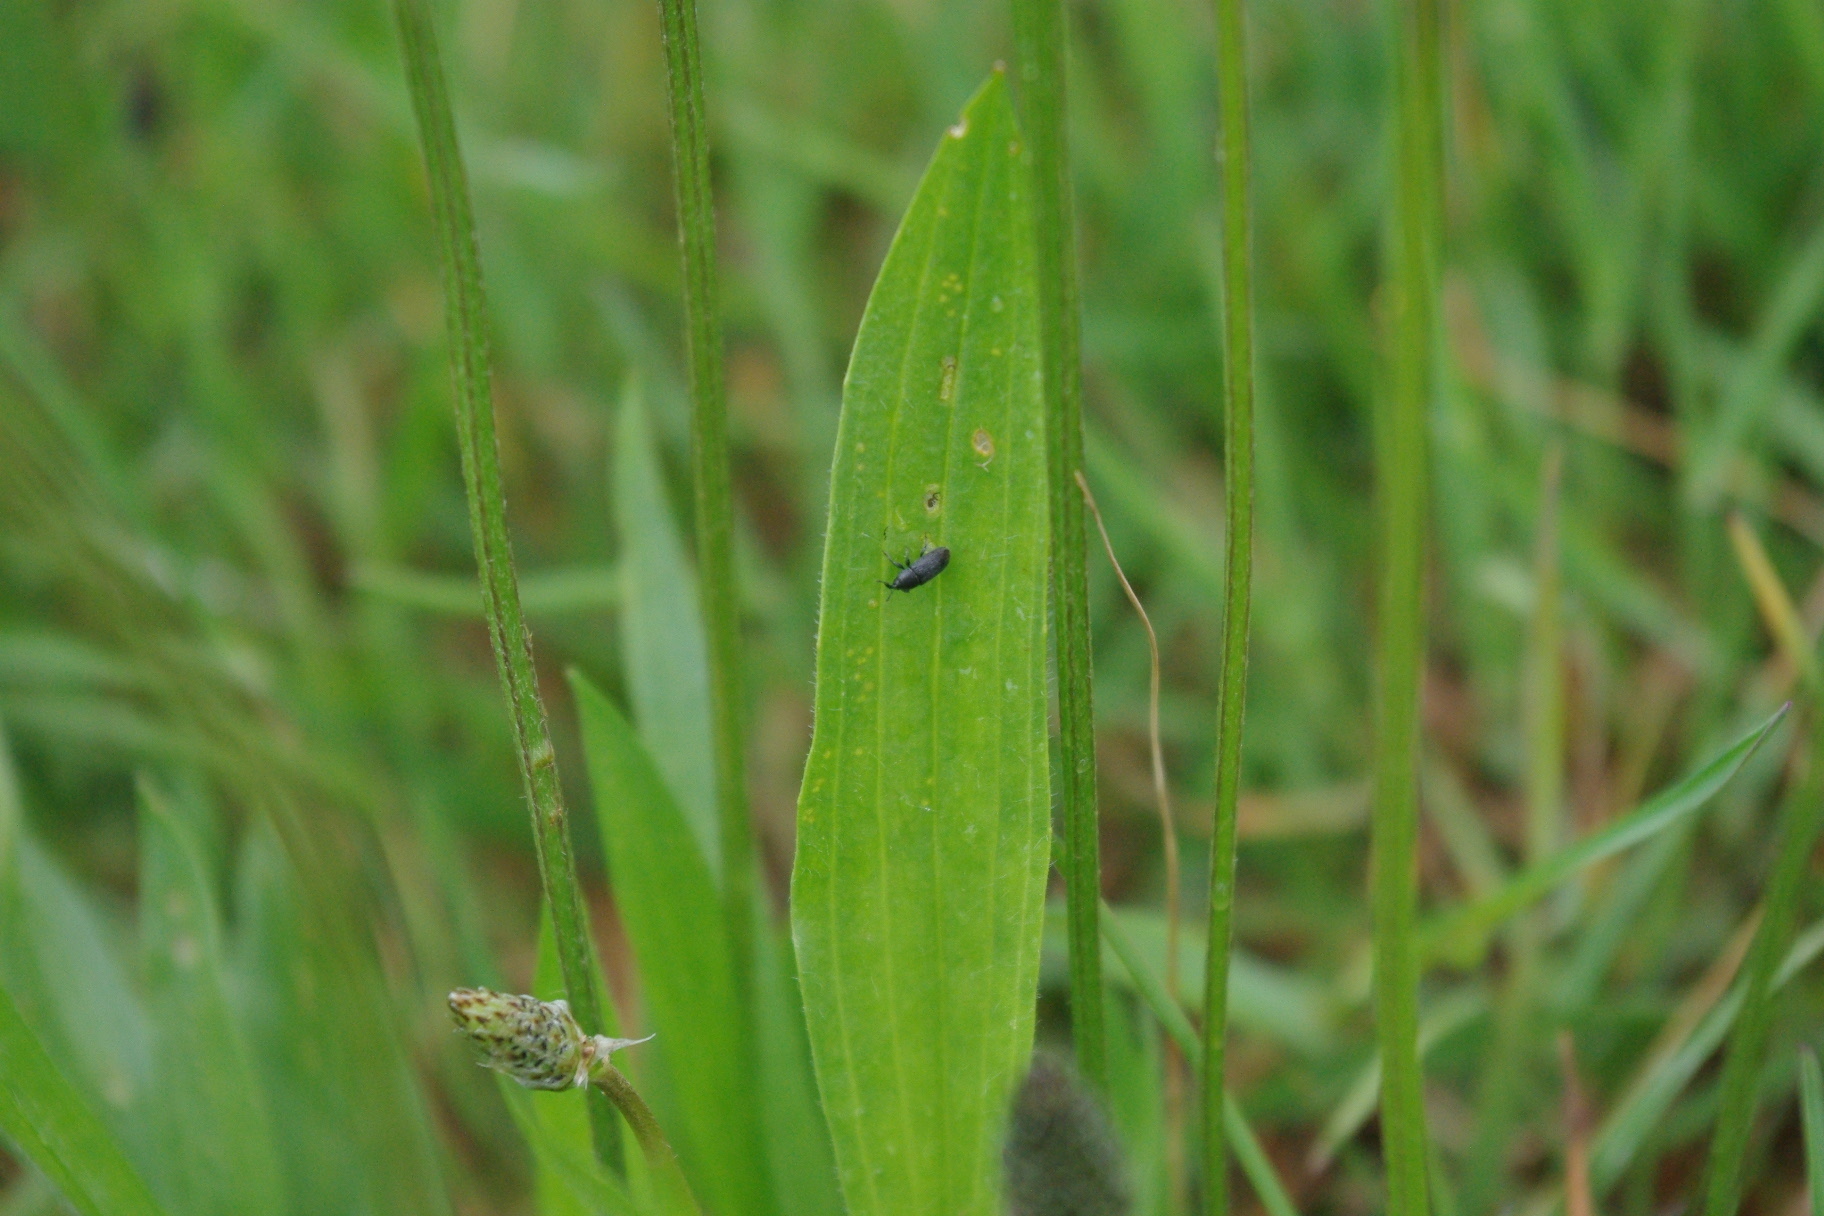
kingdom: Animalia
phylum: Arthropoda
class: Insecta
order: Coleoptera
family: Curculionidae
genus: Mecinus
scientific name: Mecinus pyraster
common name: Weevil
